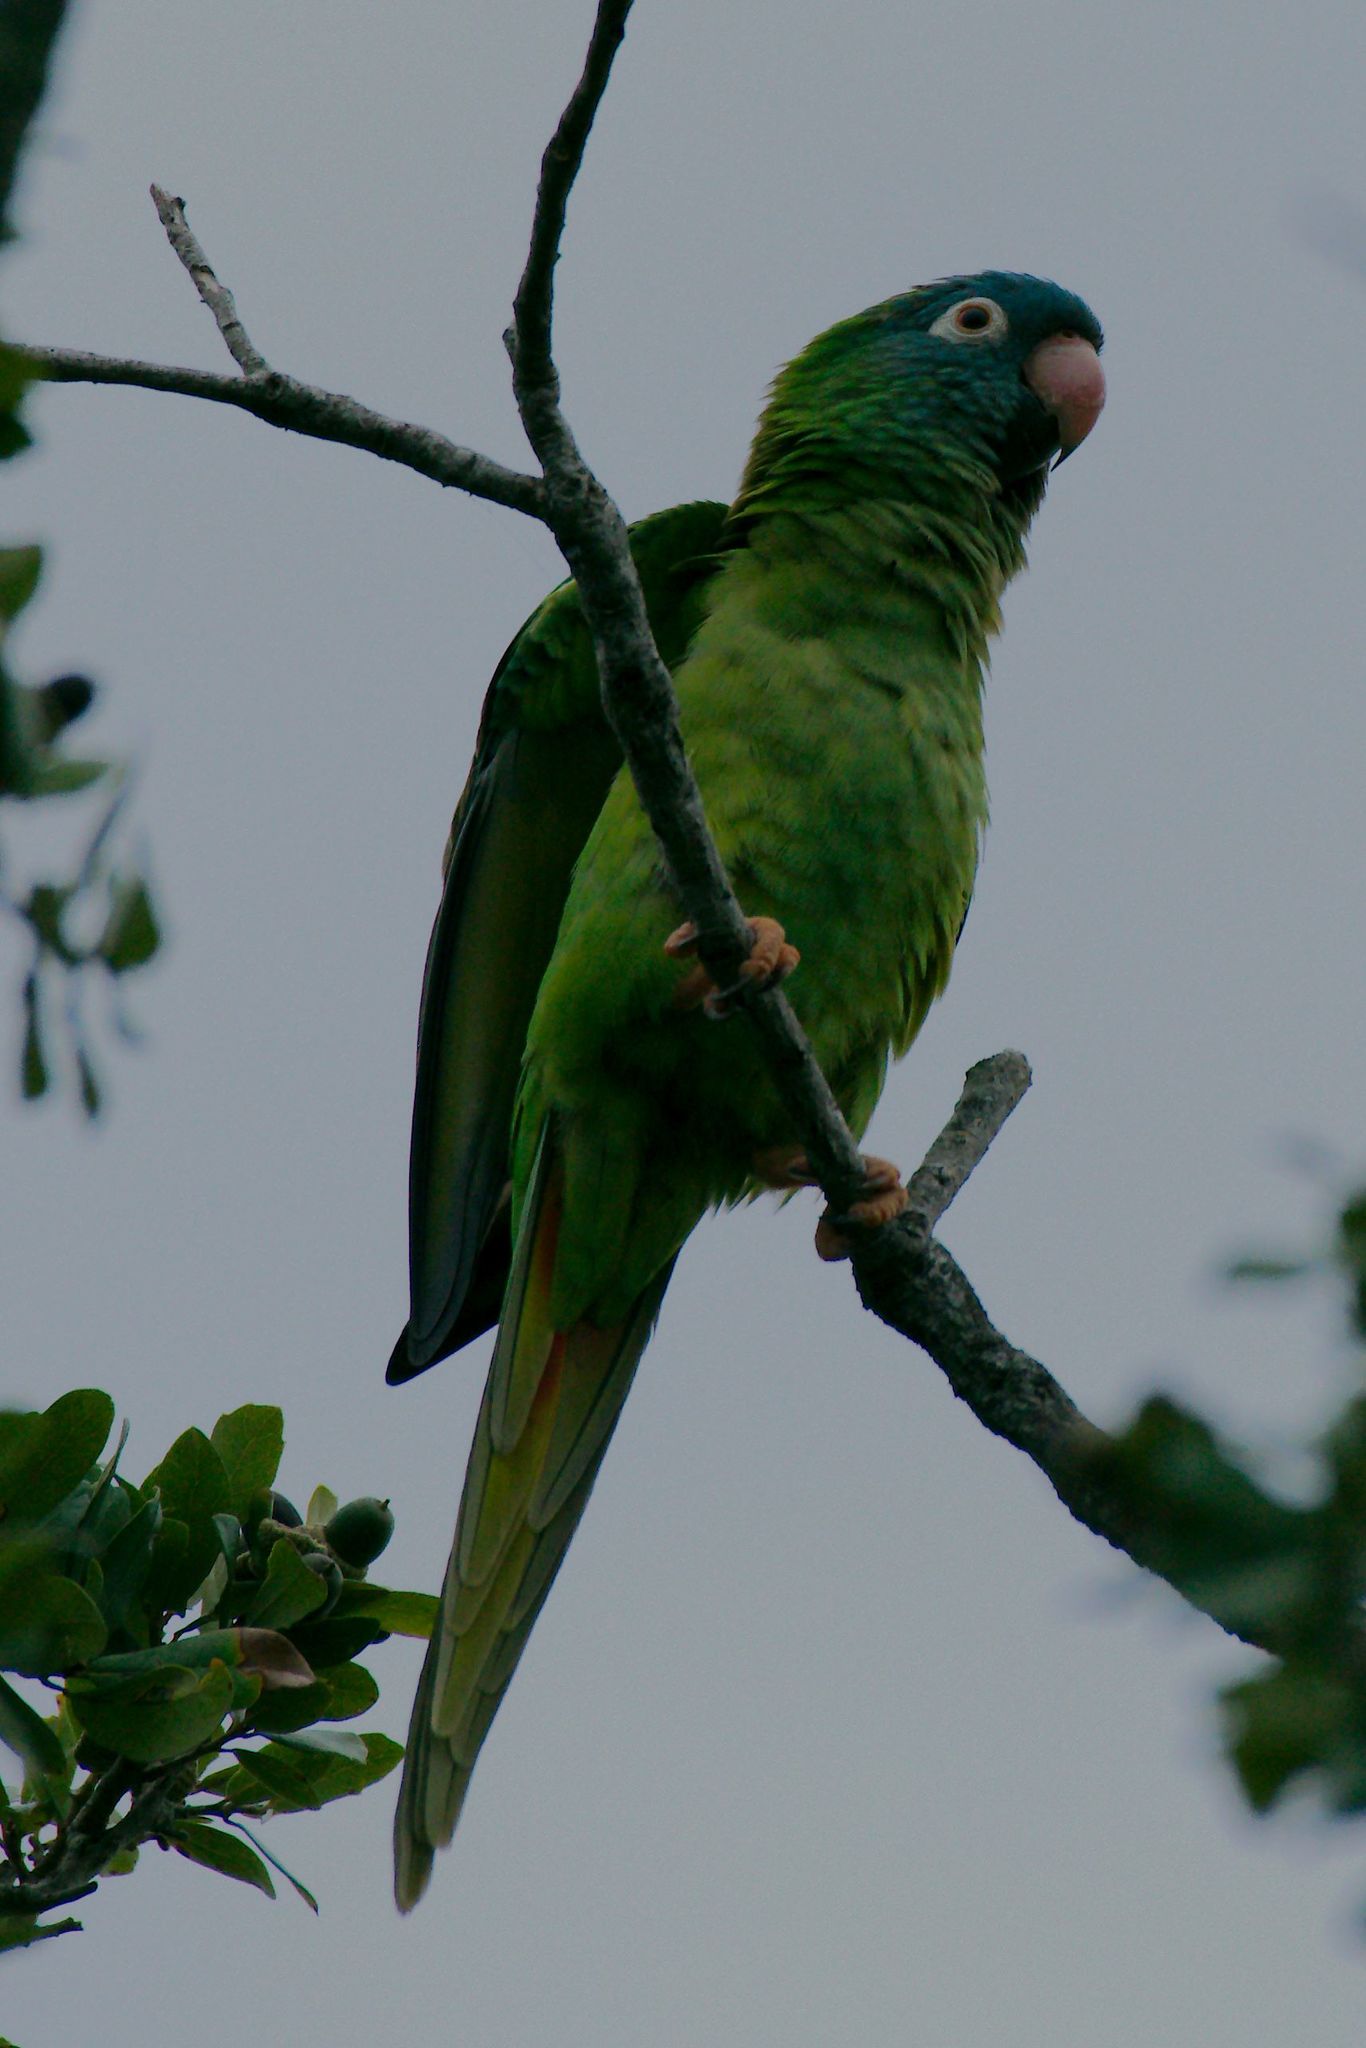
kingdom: Animalia
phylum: Chordata
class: Aves
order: Psittaciformes
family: Psittacidae
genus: Aratinga
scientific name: Aratinga acuticaudata
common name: Blue-crowned parakeet
